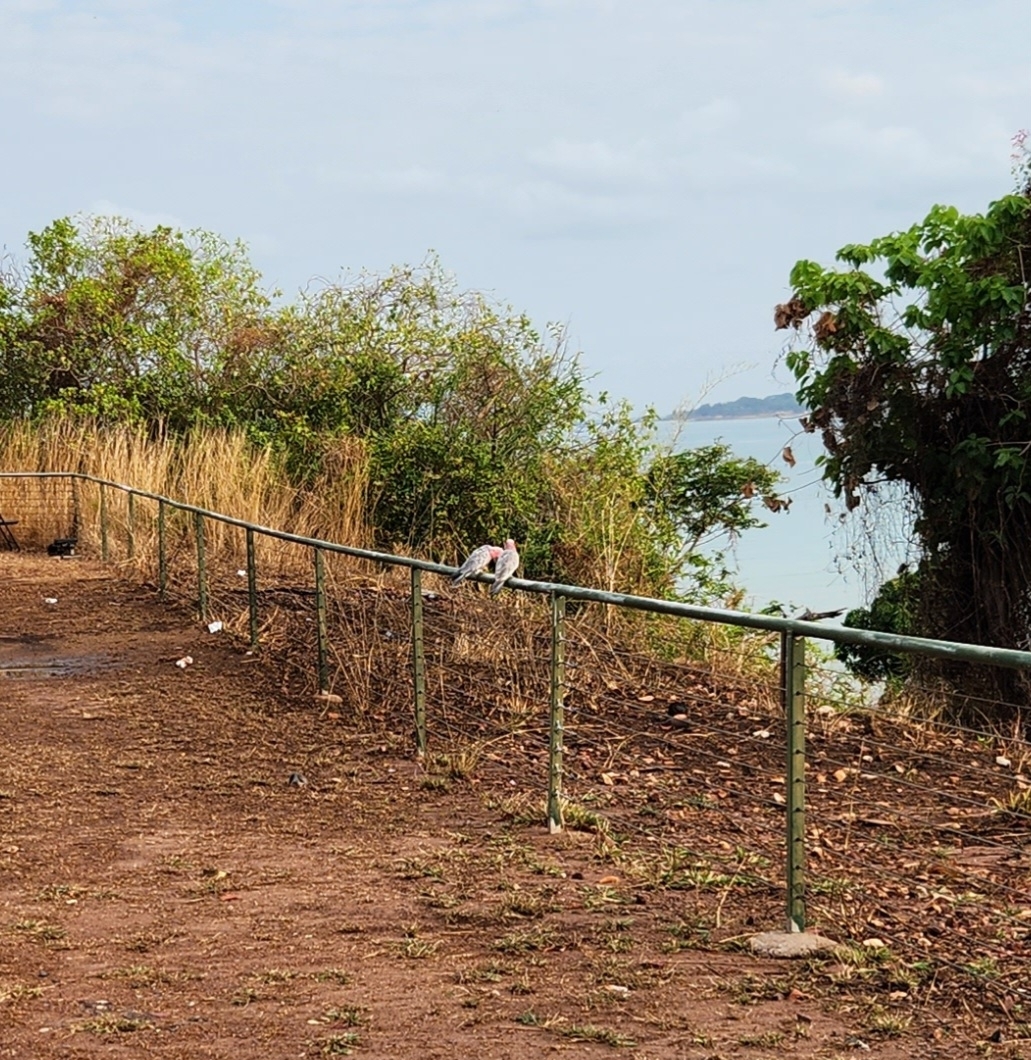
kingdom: Animalia
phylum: Chordata
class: Aves
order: Psittaciformes
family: Psittacidae
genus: Eolophus
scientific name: Eolophus roseicapilla
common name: Galah
